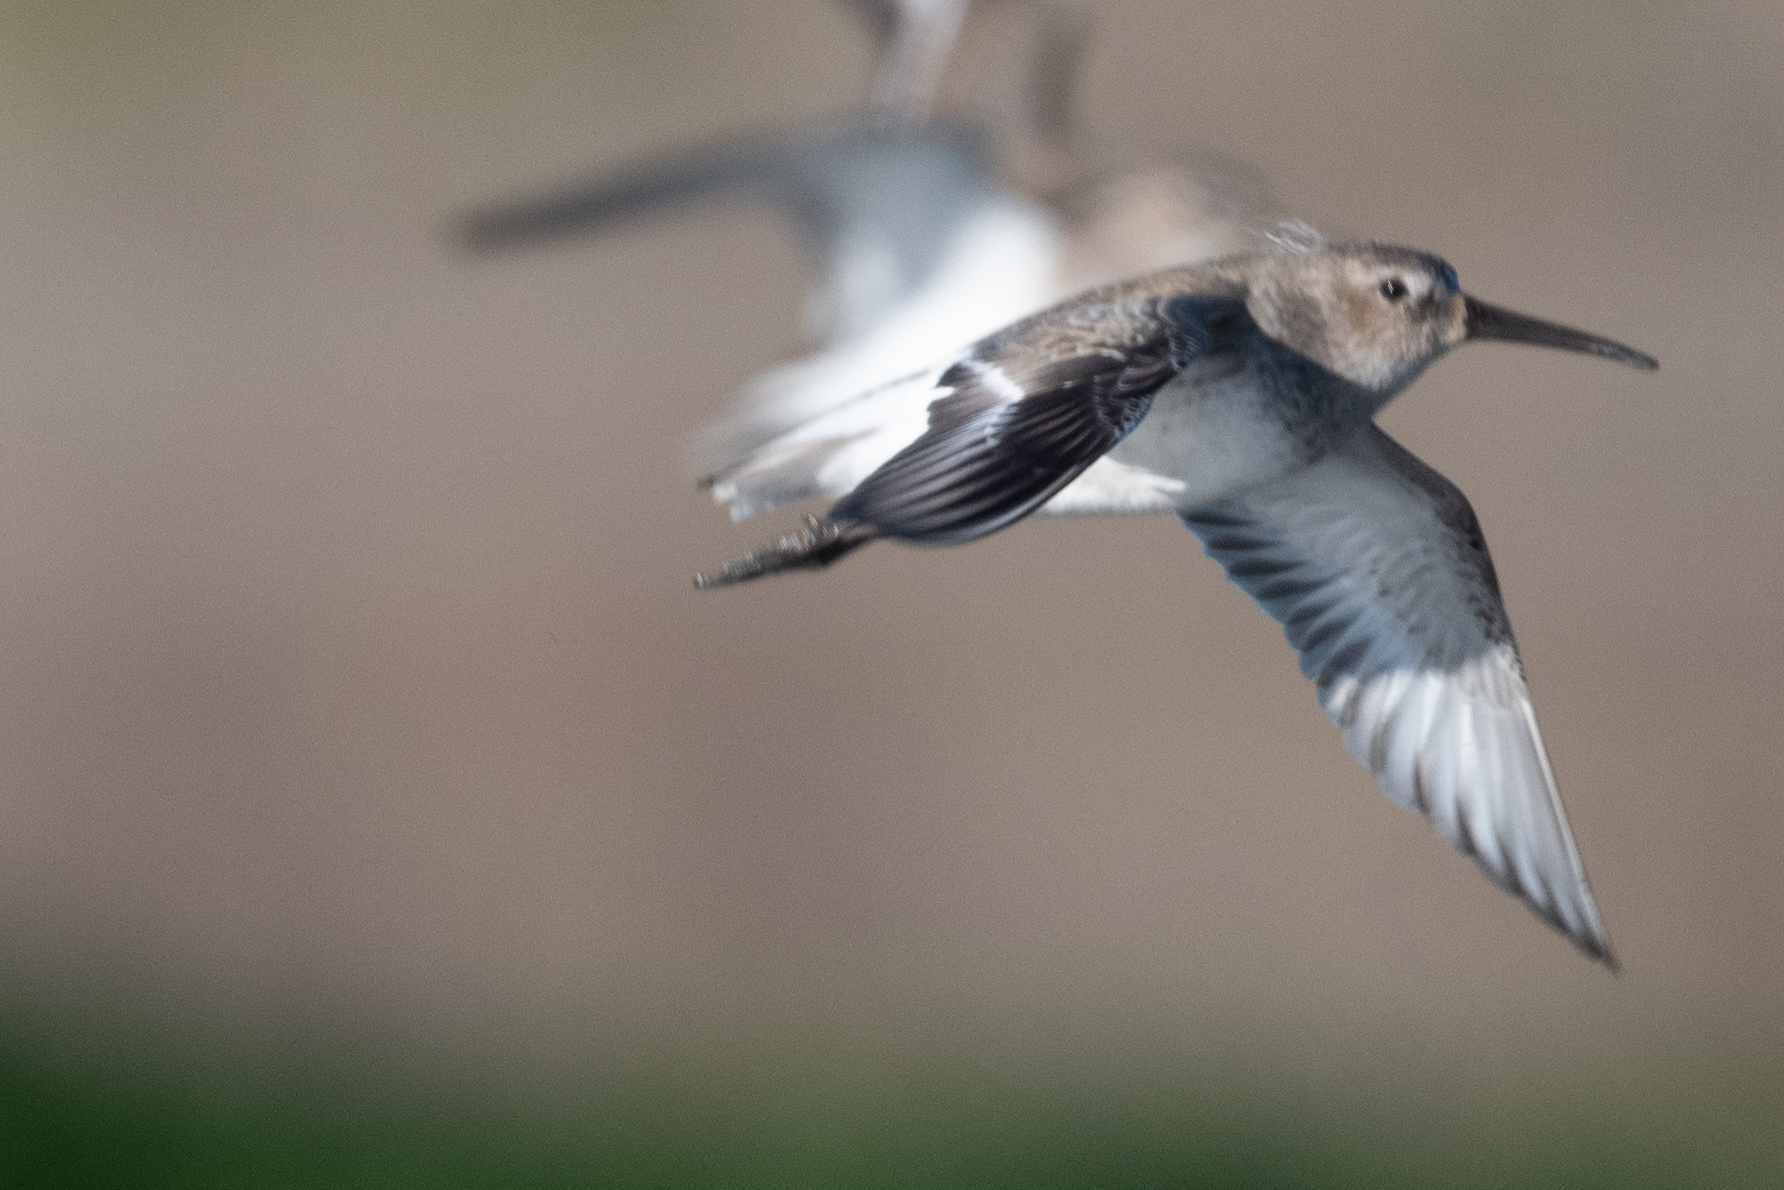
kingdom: Animalia
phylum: Chordata
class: Aves
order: Charadriiformes
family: Scolopacidae
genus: Calidris
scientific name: Calidris alpina
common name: Dunlin
